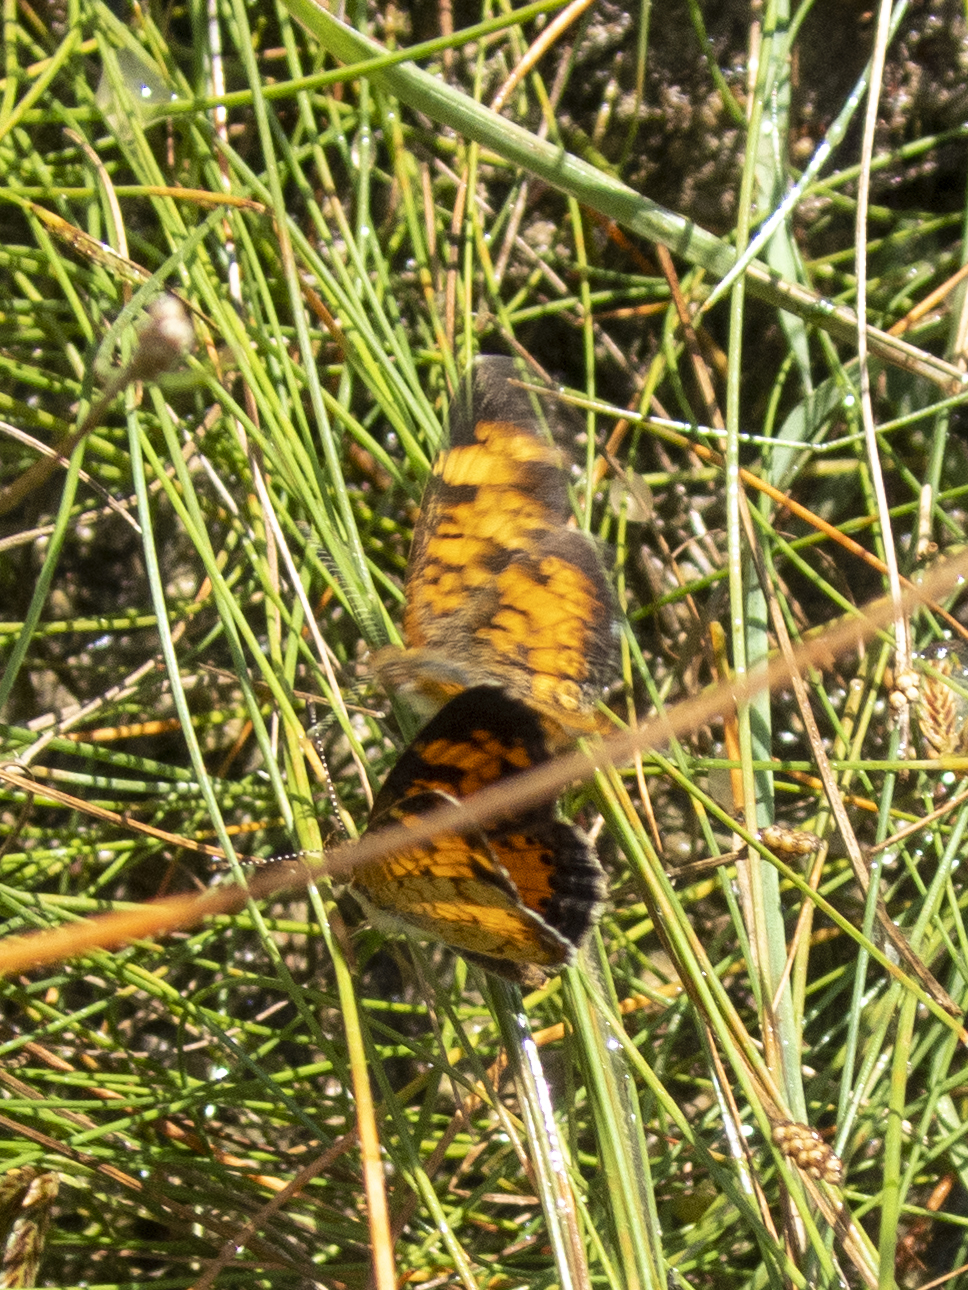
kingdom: Animalia
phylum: Arthropoda
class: Insecta
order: Lepidoptera
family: Nymphalidae
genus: Phyciodes
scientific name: Phyciodes tharos
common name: Pearl crescent
